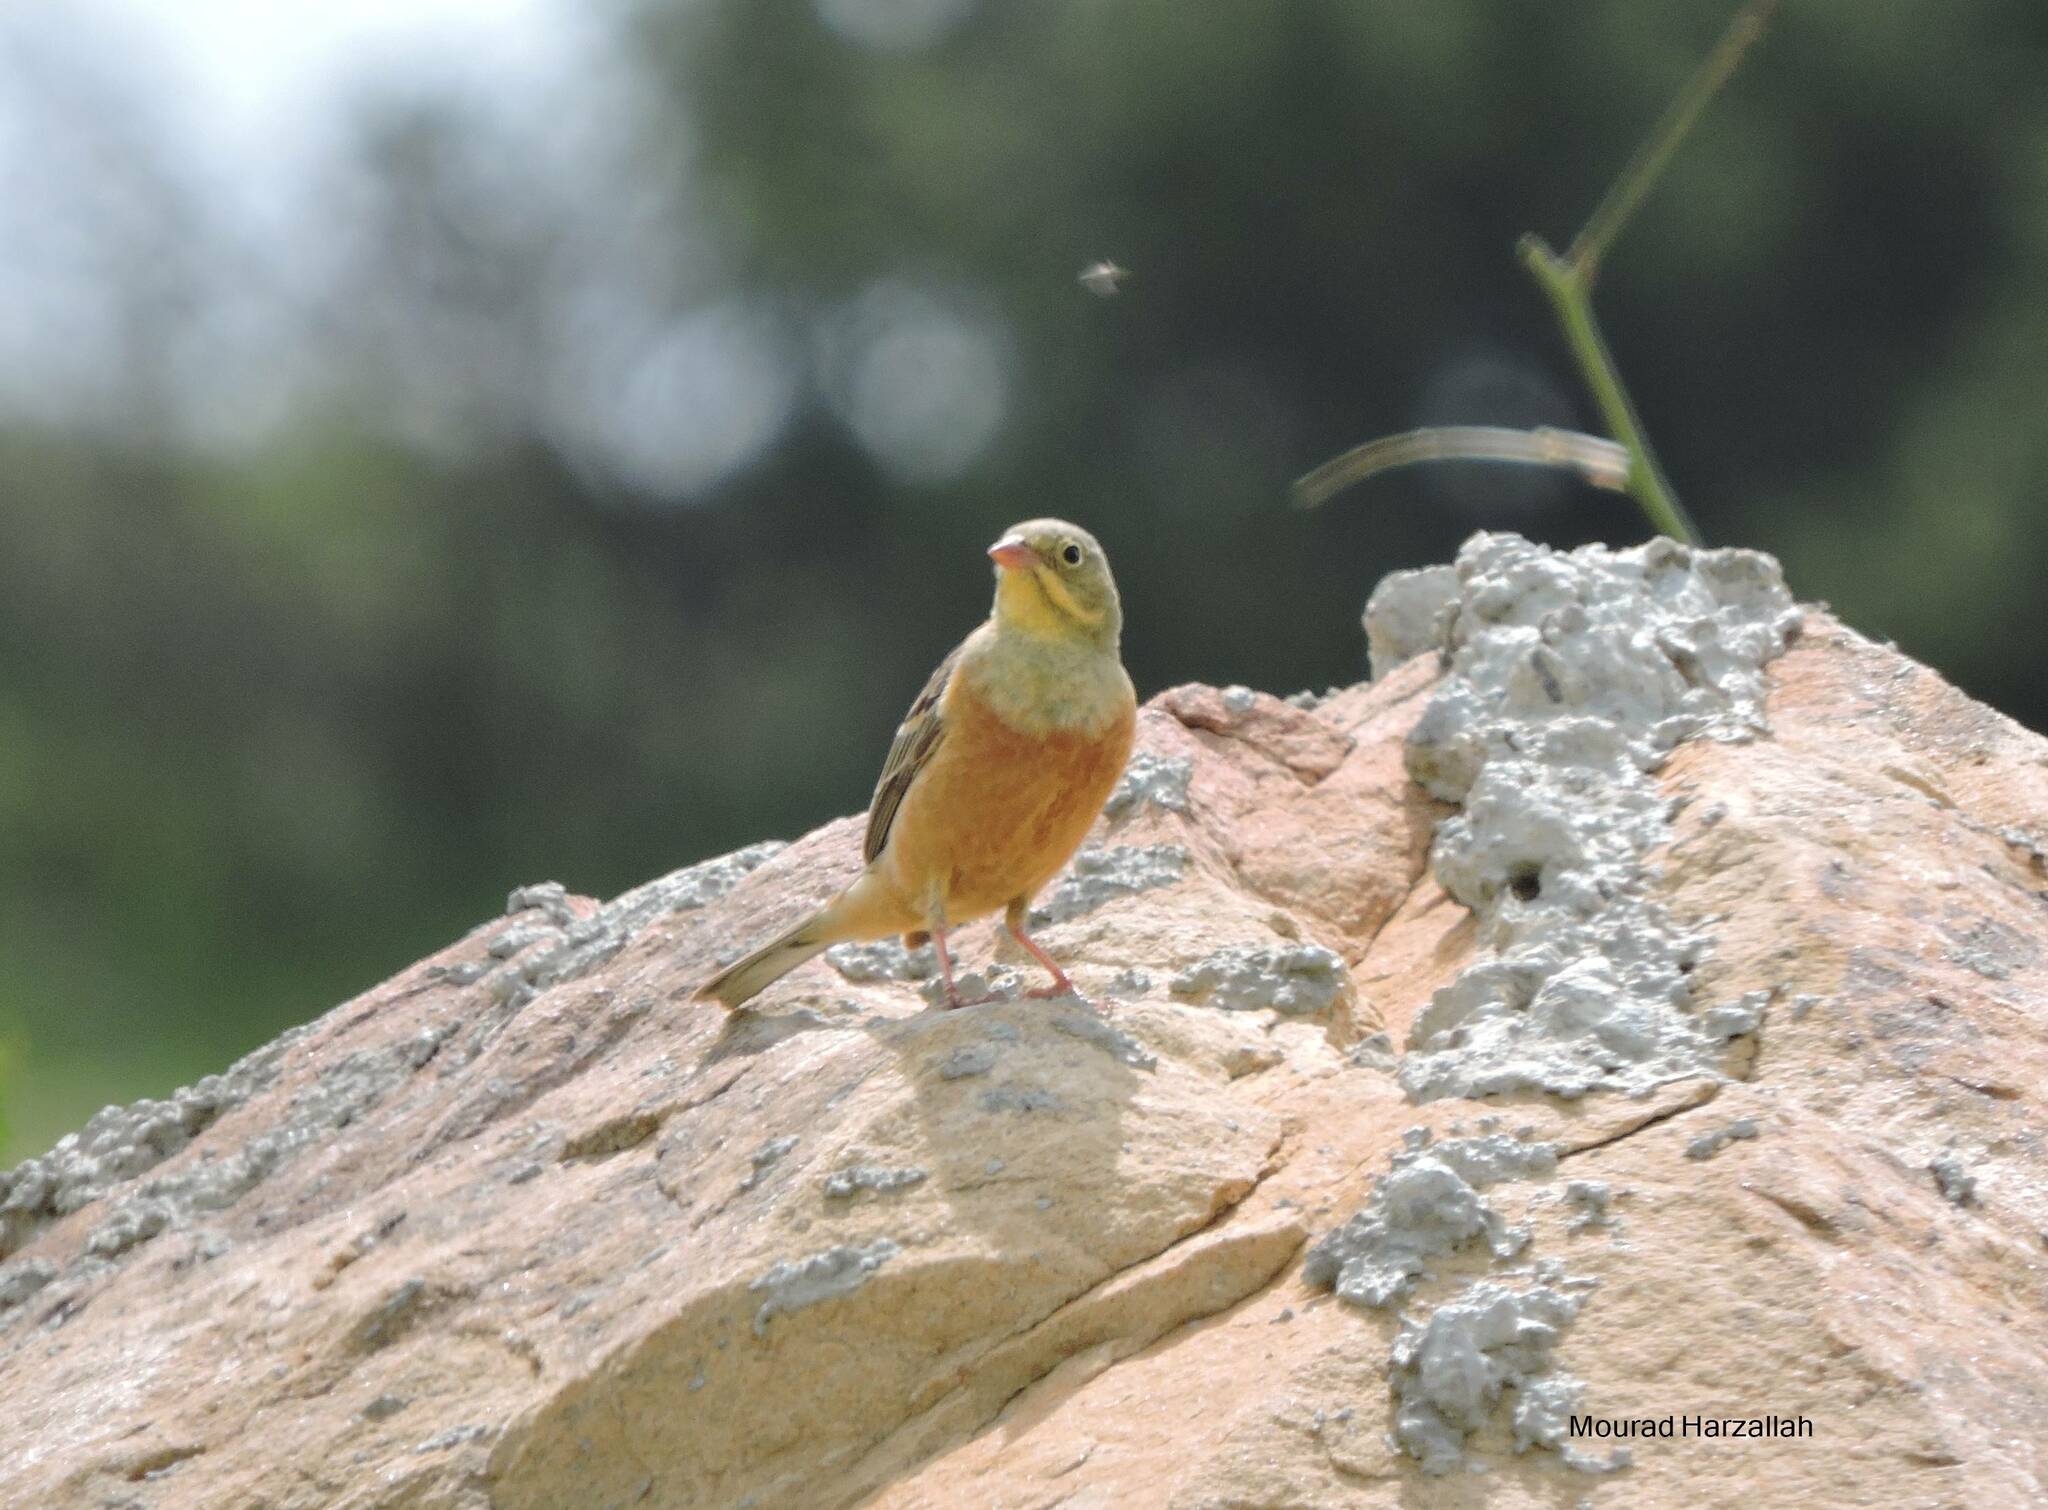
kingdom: Animalia
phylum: Chordata
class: Aves
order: Passeriformes
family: Emberizidae
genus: Emberiza
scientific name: Emberiza hortulana
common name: Ortolan bunting
